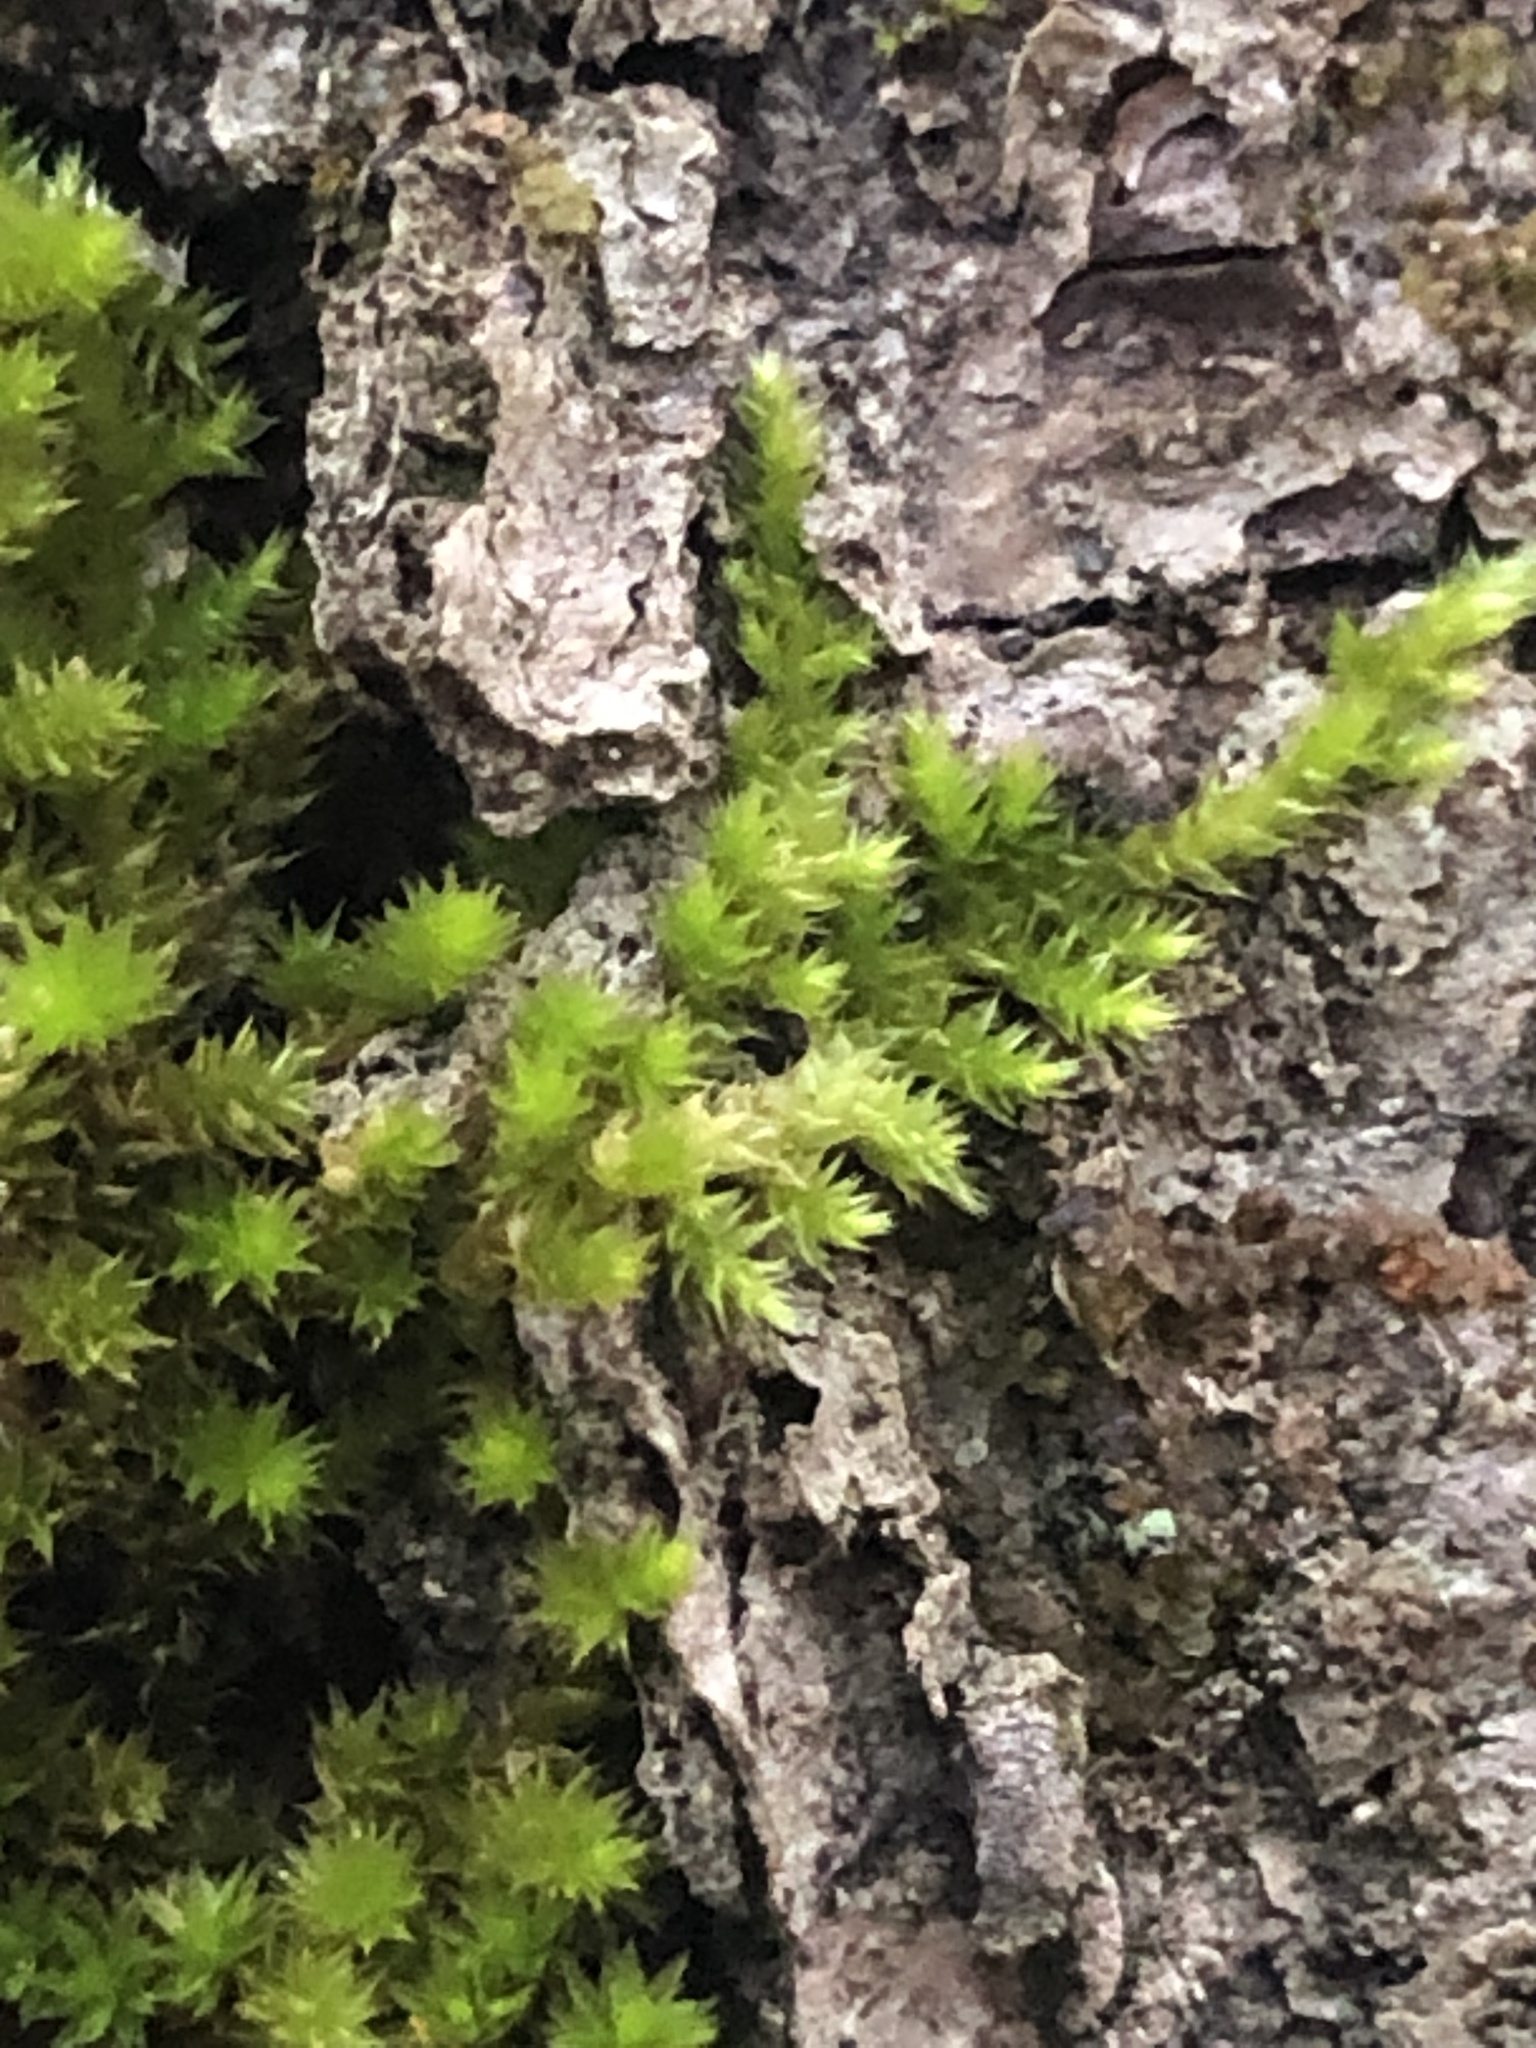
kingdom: Plantae
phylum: Bryophyta
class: Bryopsida
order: Hypnales
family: Pylaisiadelphaceae
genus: Platygyrium
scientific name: Platygyrium repens
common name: Flat-brocade moss
